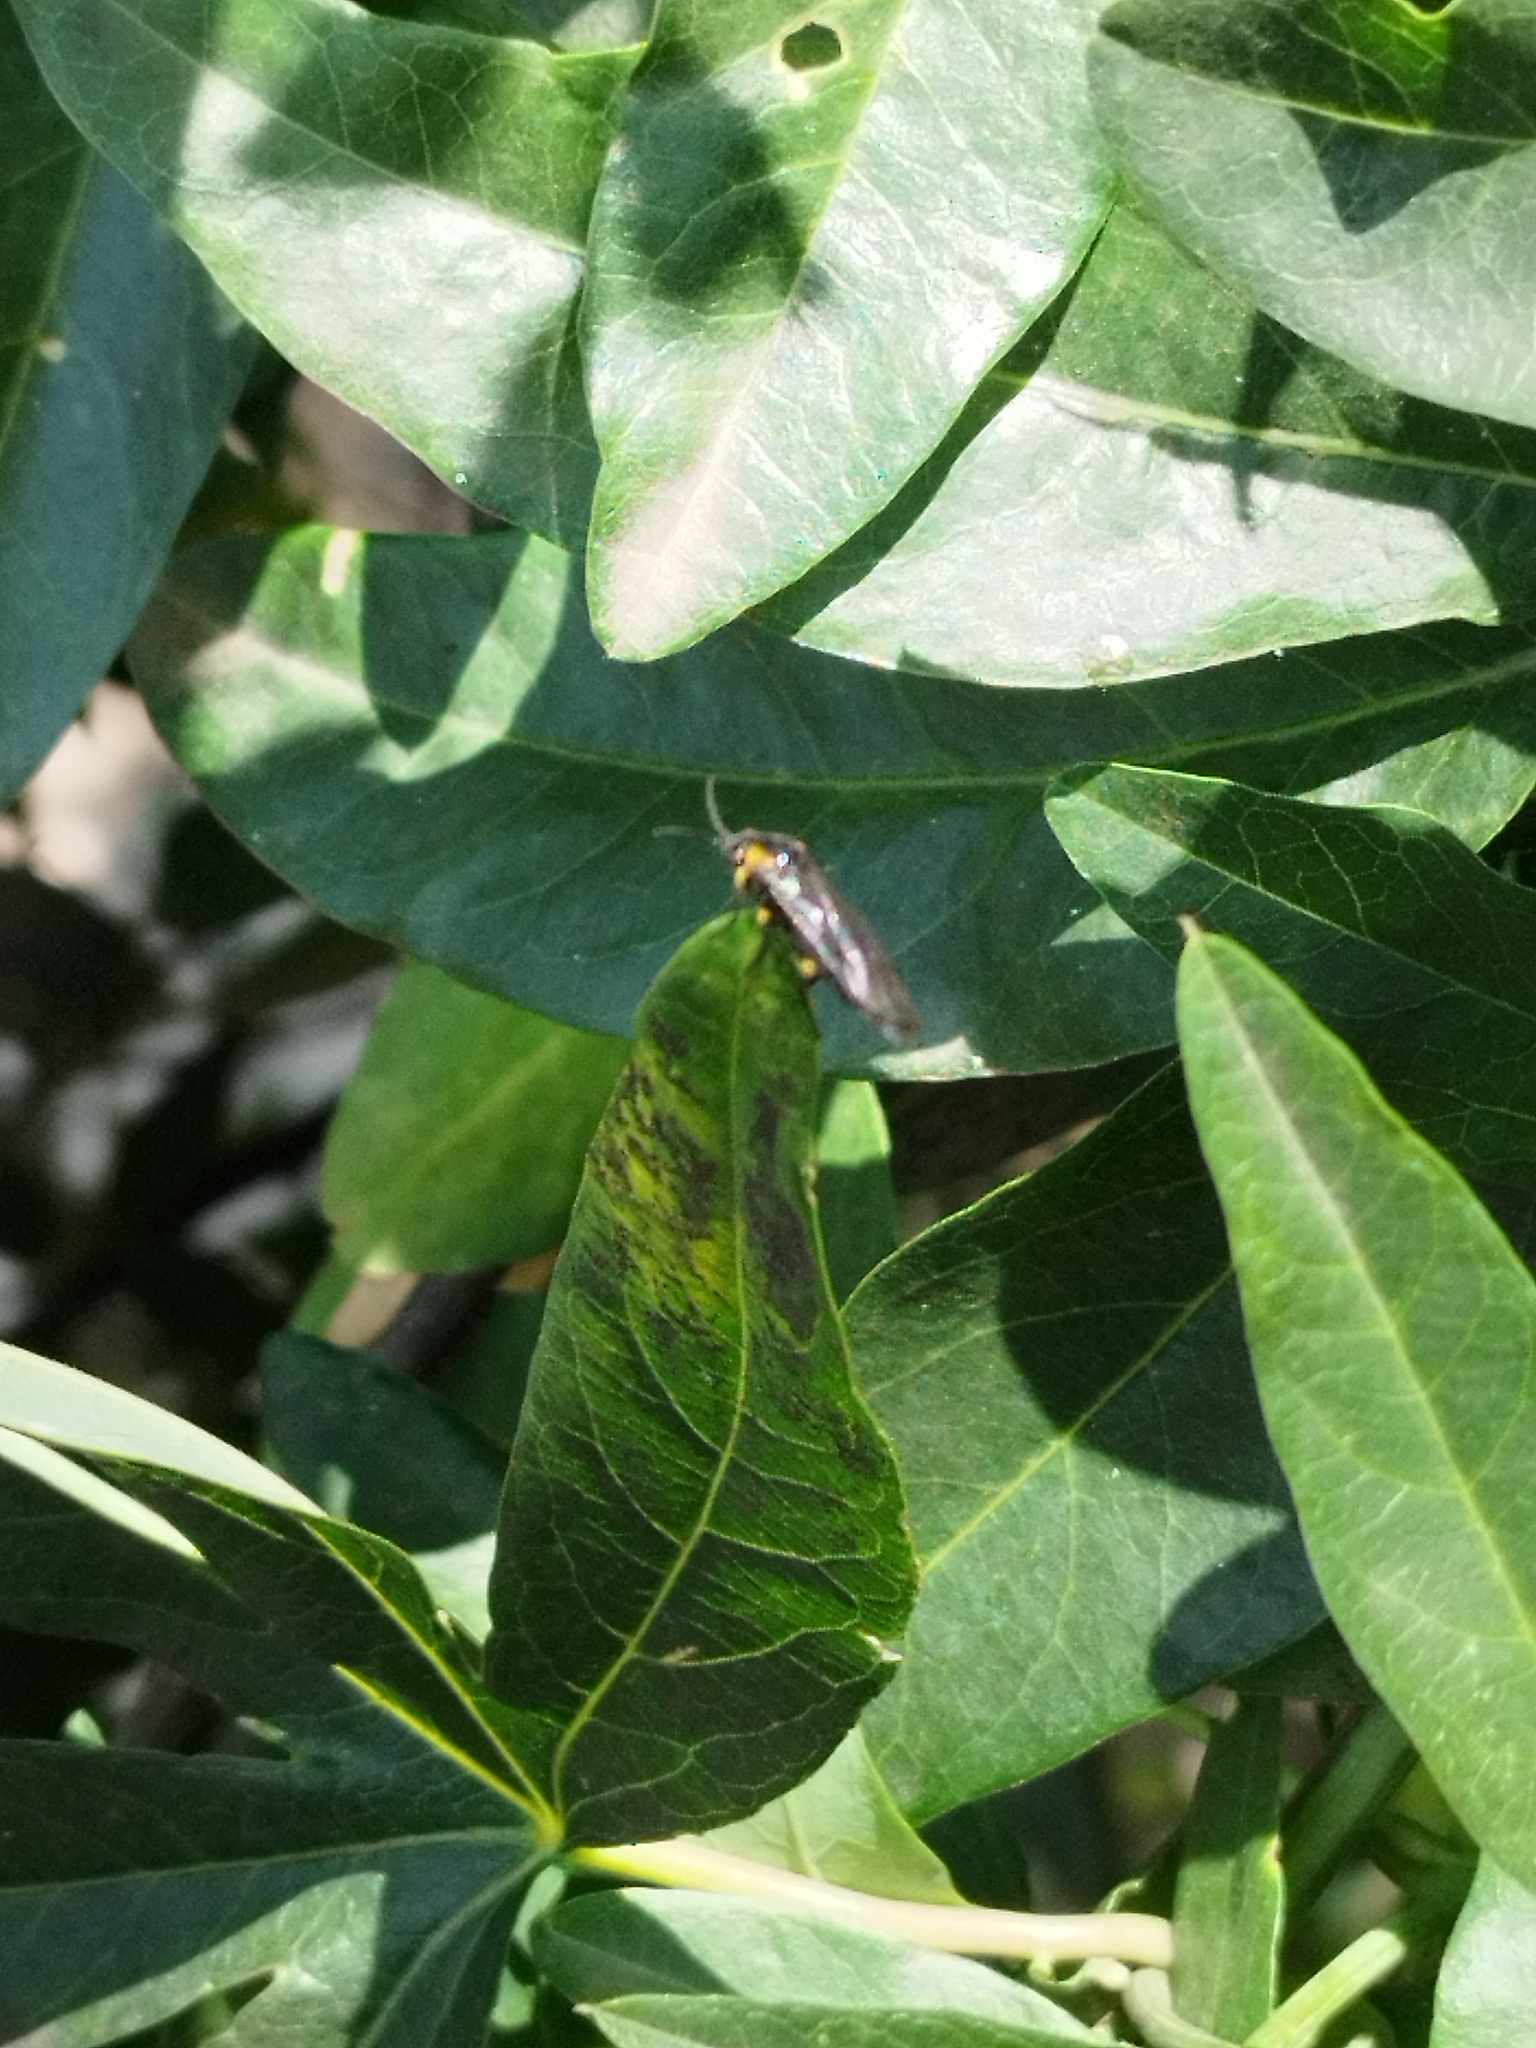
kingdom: Animalia
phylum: Arthropoda
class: Insecta
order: Hymenoptera
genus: Adurgoa
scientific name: Adurgoa
